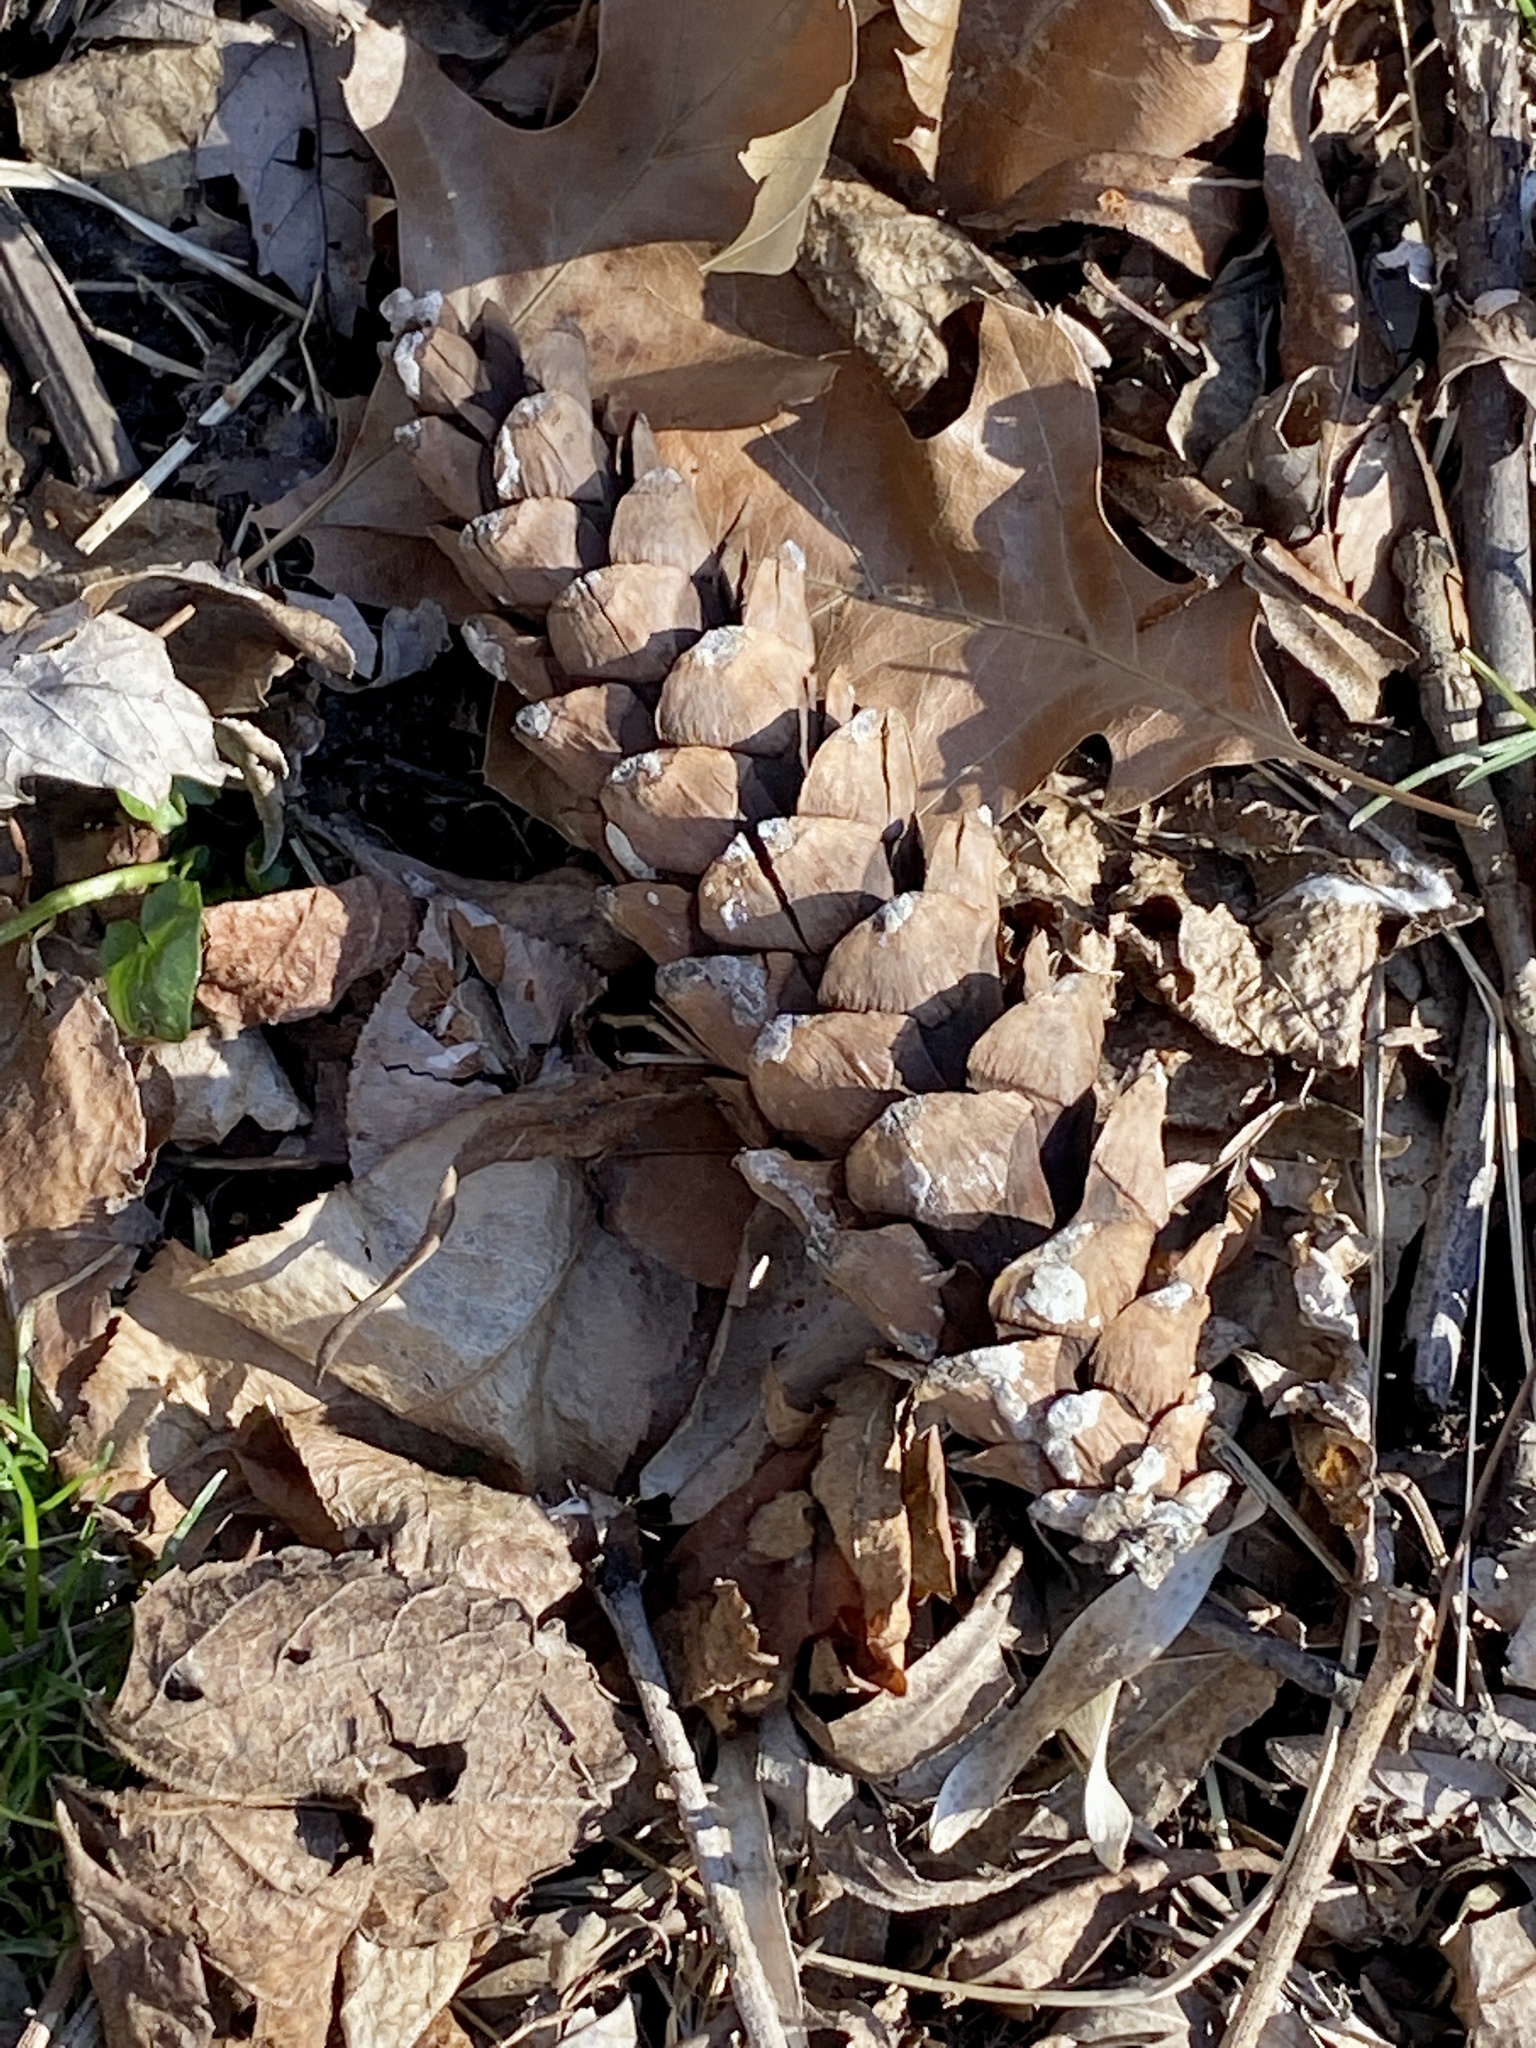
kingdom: Plantae
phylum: Tracheophyta
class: Pinopsida
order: Pinales
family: Pinaceae
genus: Pinus
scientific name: Pinus strobus
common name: Weymouth pine
